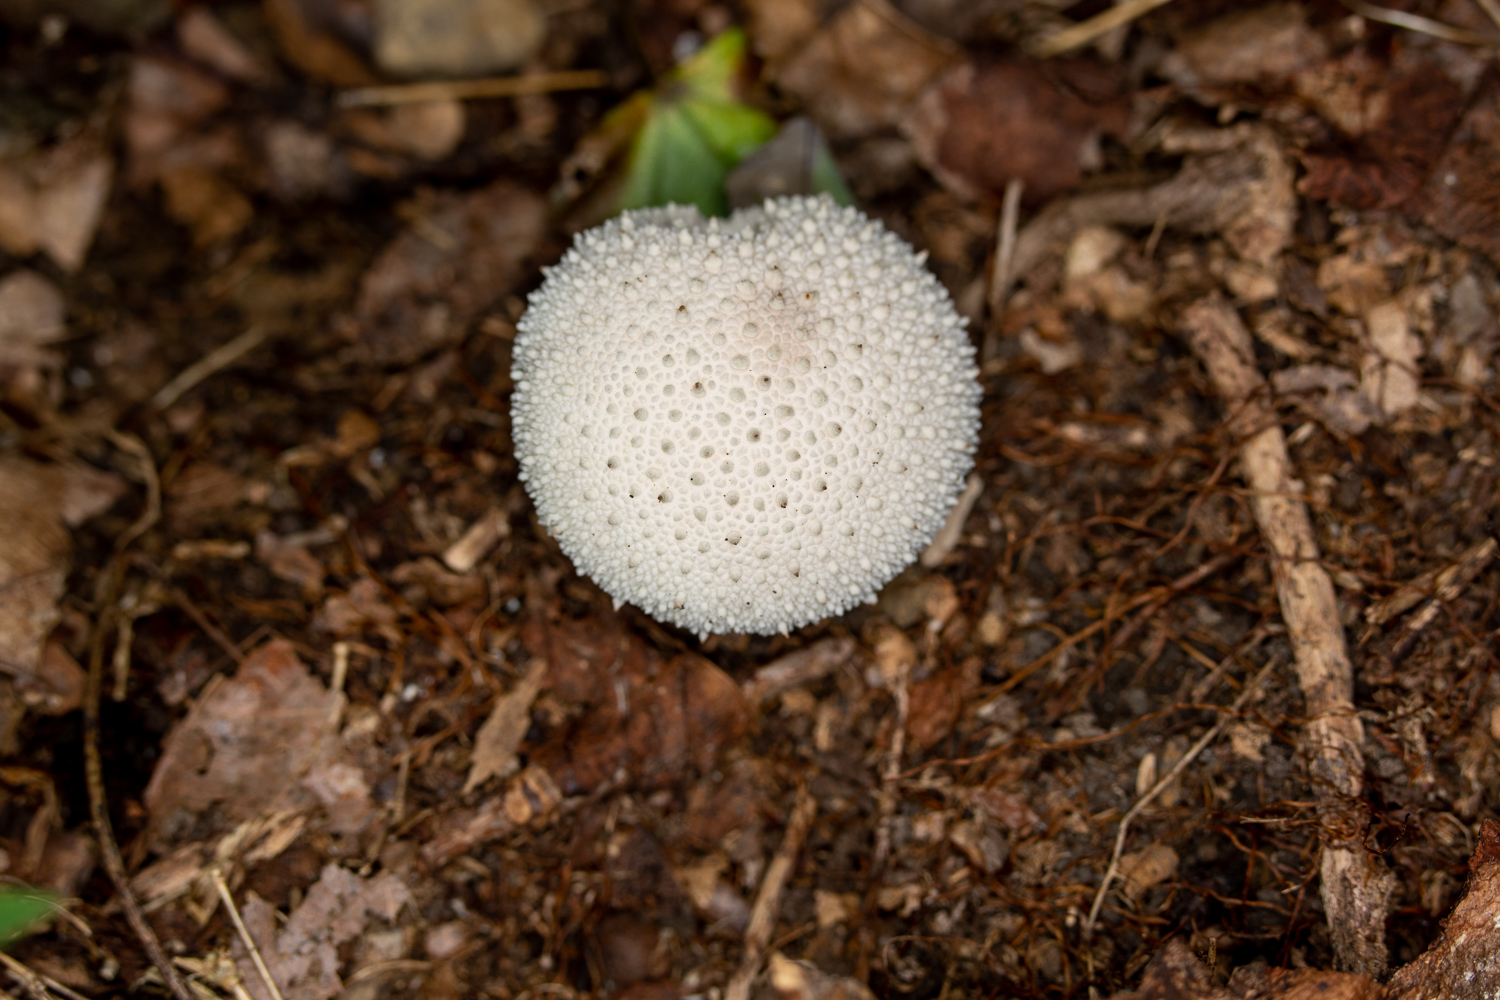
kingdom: Fungi
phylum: Basidiomycota
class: Agaricomycetes
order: Agaricales
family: Lycoperdaceae
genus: Lycoperdon
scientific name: Lycoperdon perlatum
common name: Common puffball
